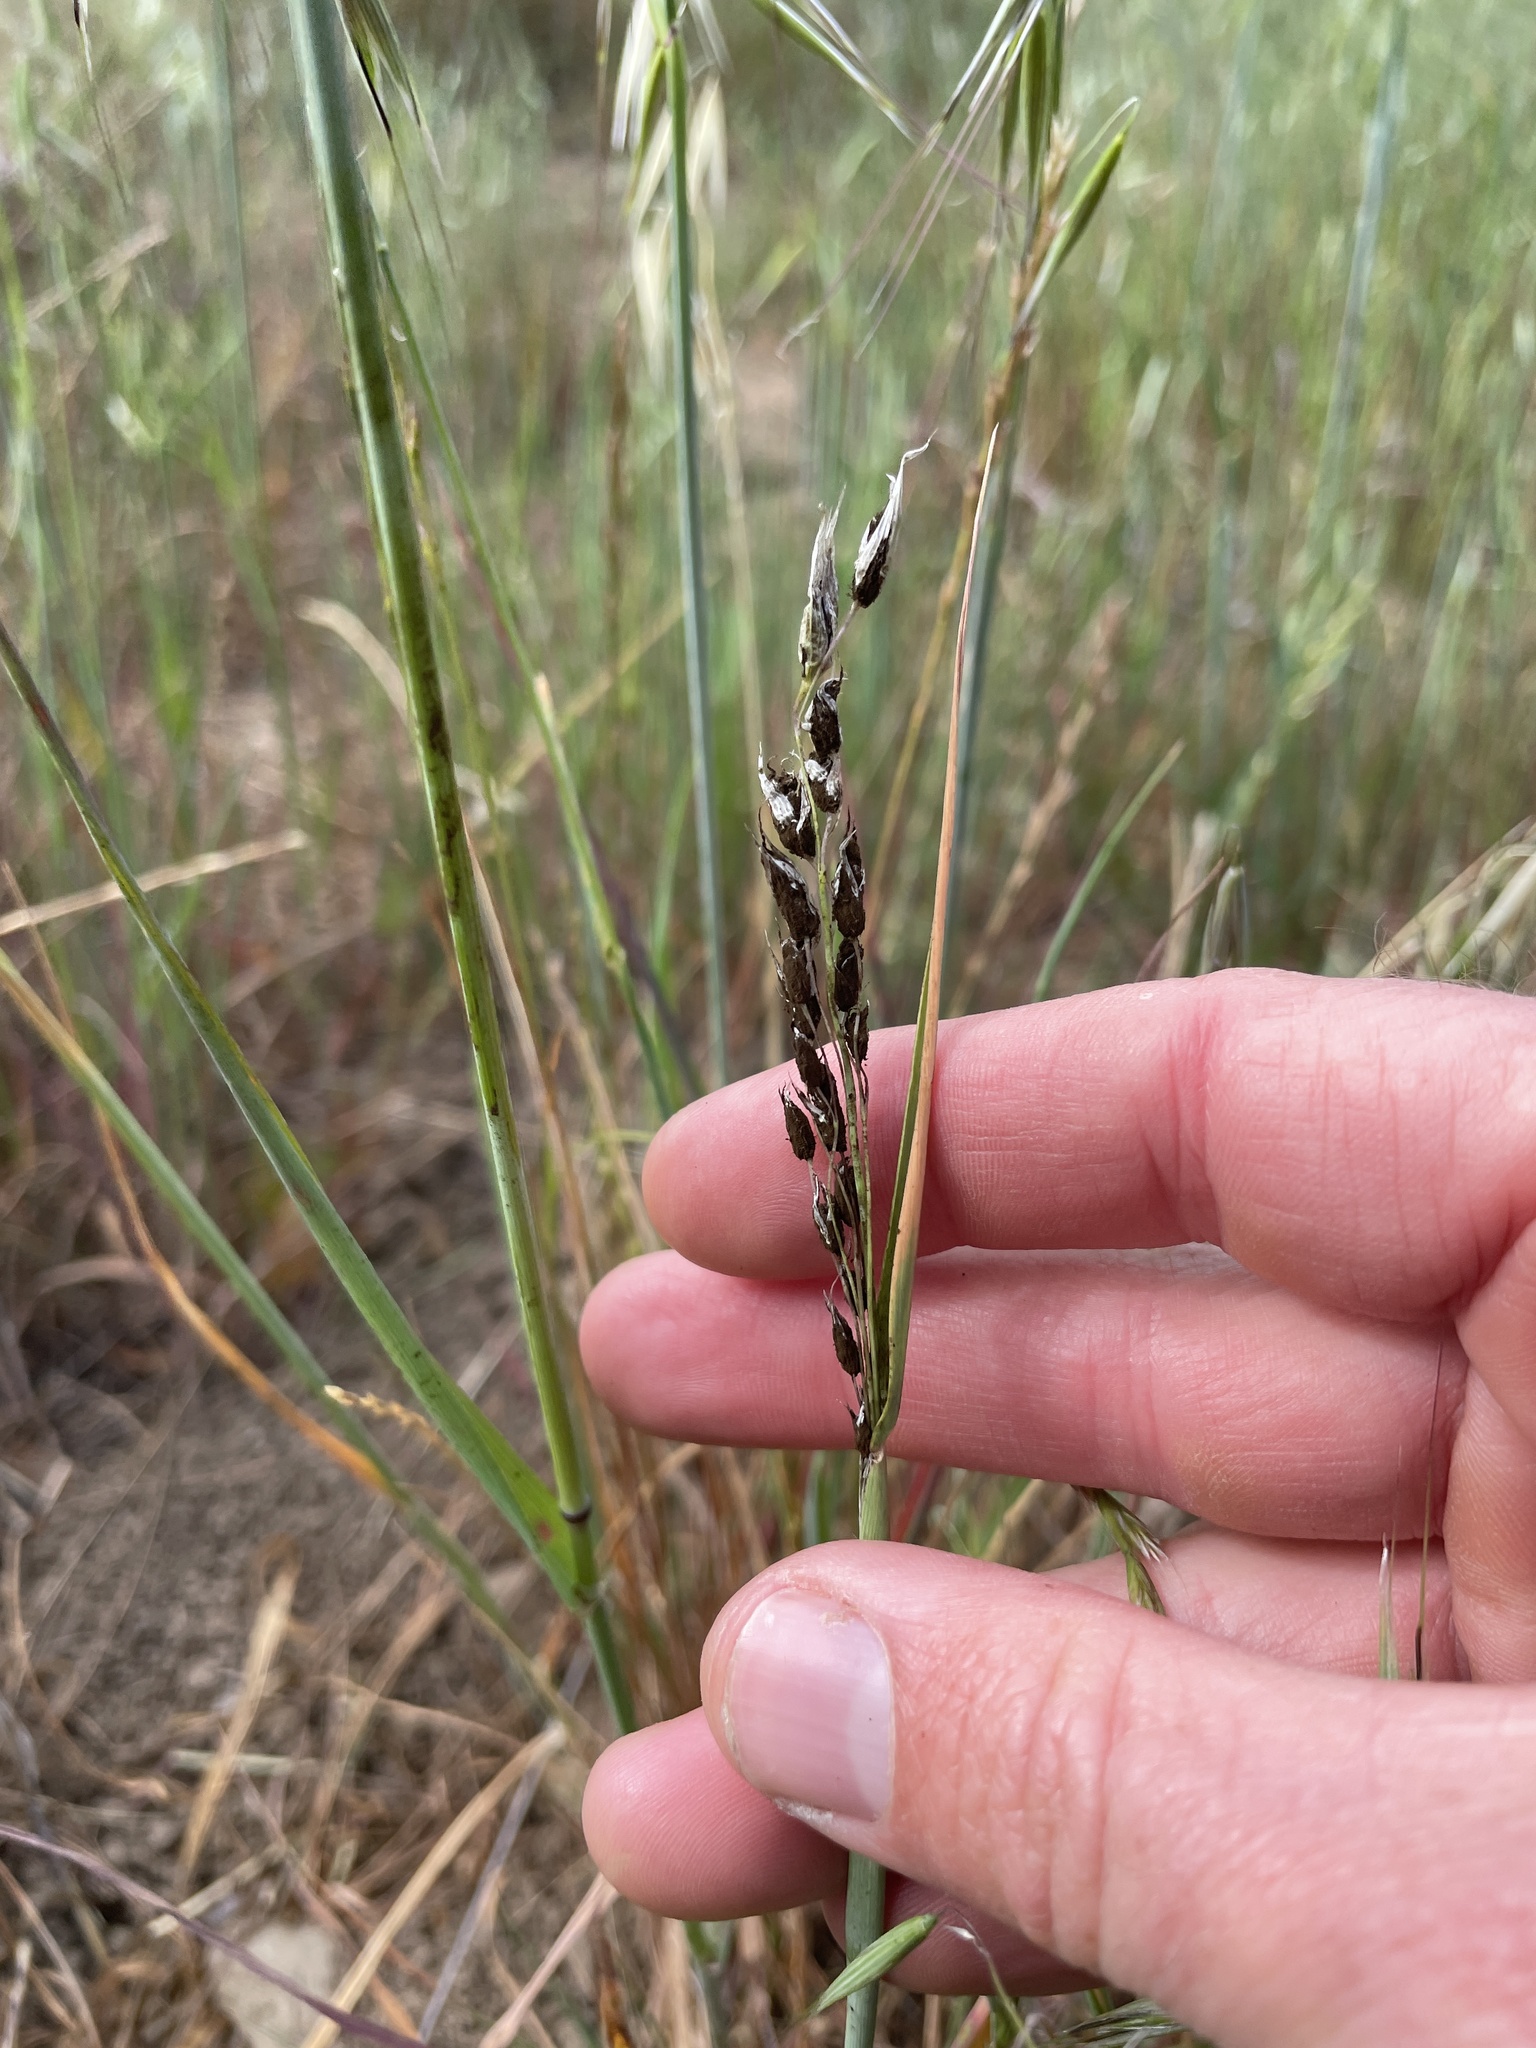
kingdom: Fungi
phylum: Basidiomycota
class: Ustilaginomycetes
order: Ustilaginales
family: Ustilaginaceae
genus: Ustilago
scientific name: Ustilago avenae
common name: Loose smut of oats & oat grass
